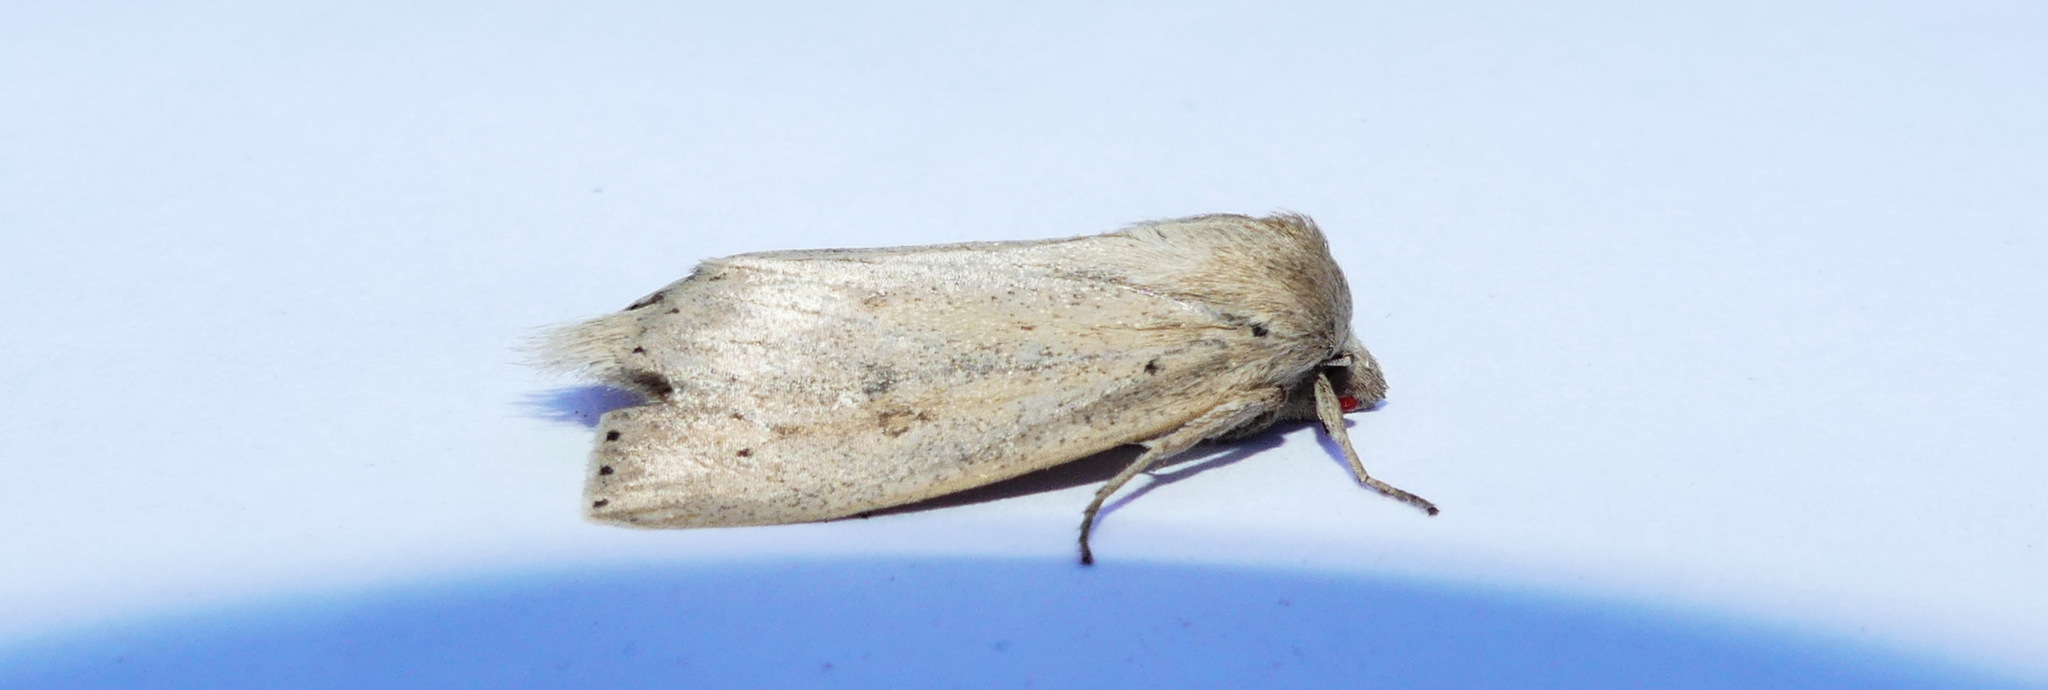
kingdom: Animalia
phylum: Arthropoda
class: Insecta
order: Lepidoptera
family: Noctuidae
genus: Globia
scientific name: Globia oblonga
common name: Oblong sedge borer moth
